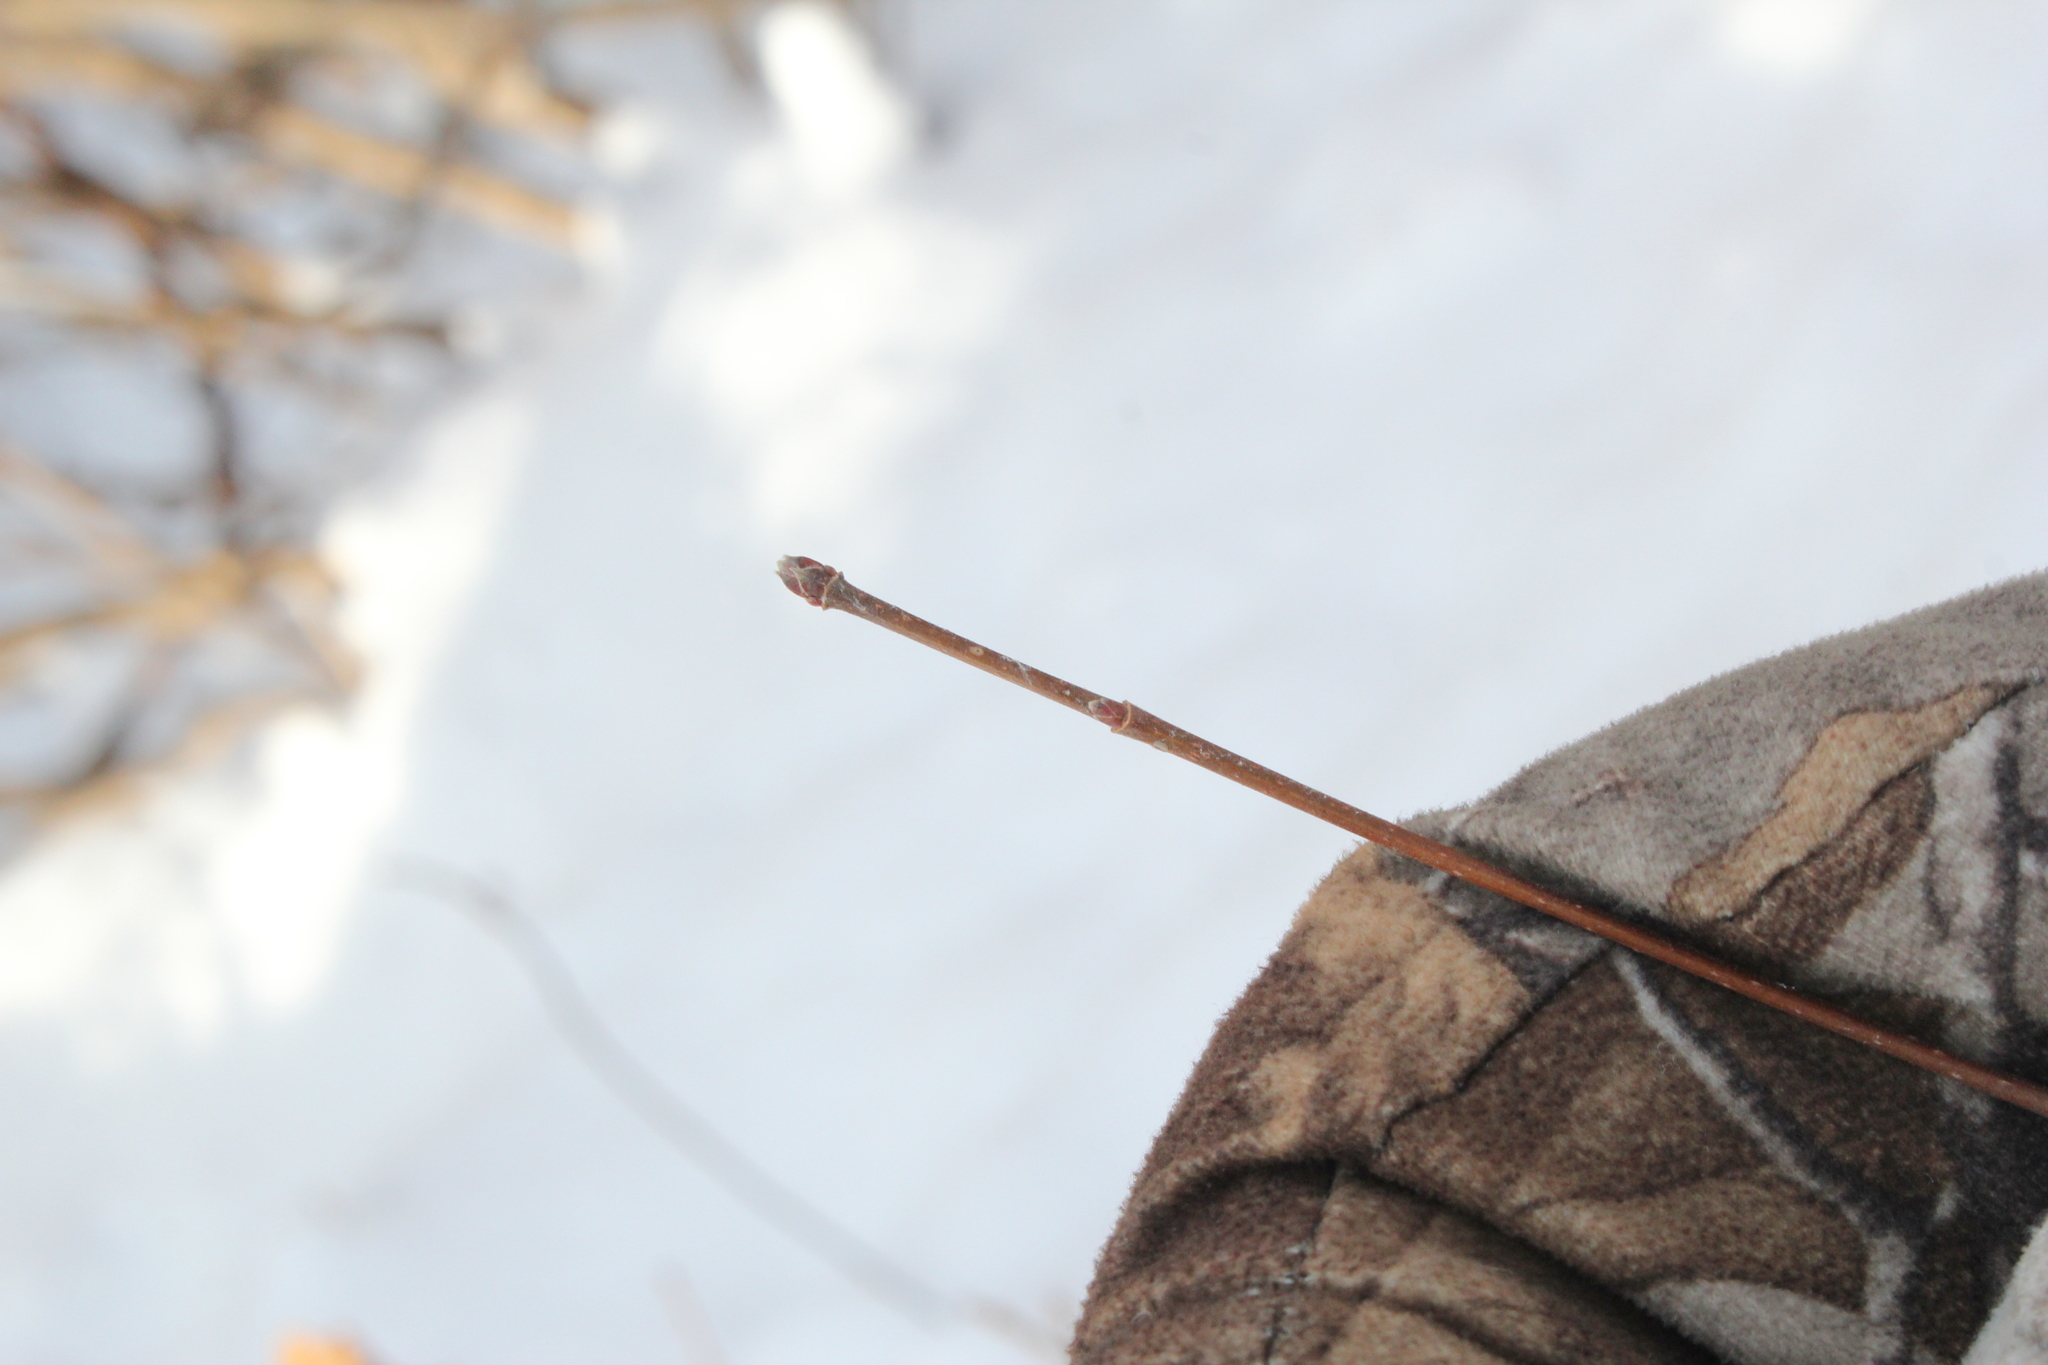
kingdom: Plantae
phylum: Tracheophyta
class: Magnoliopsida
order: Sapindales
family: Sapindaceae
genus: Acer
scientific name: Acer campestre
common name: Field maple
